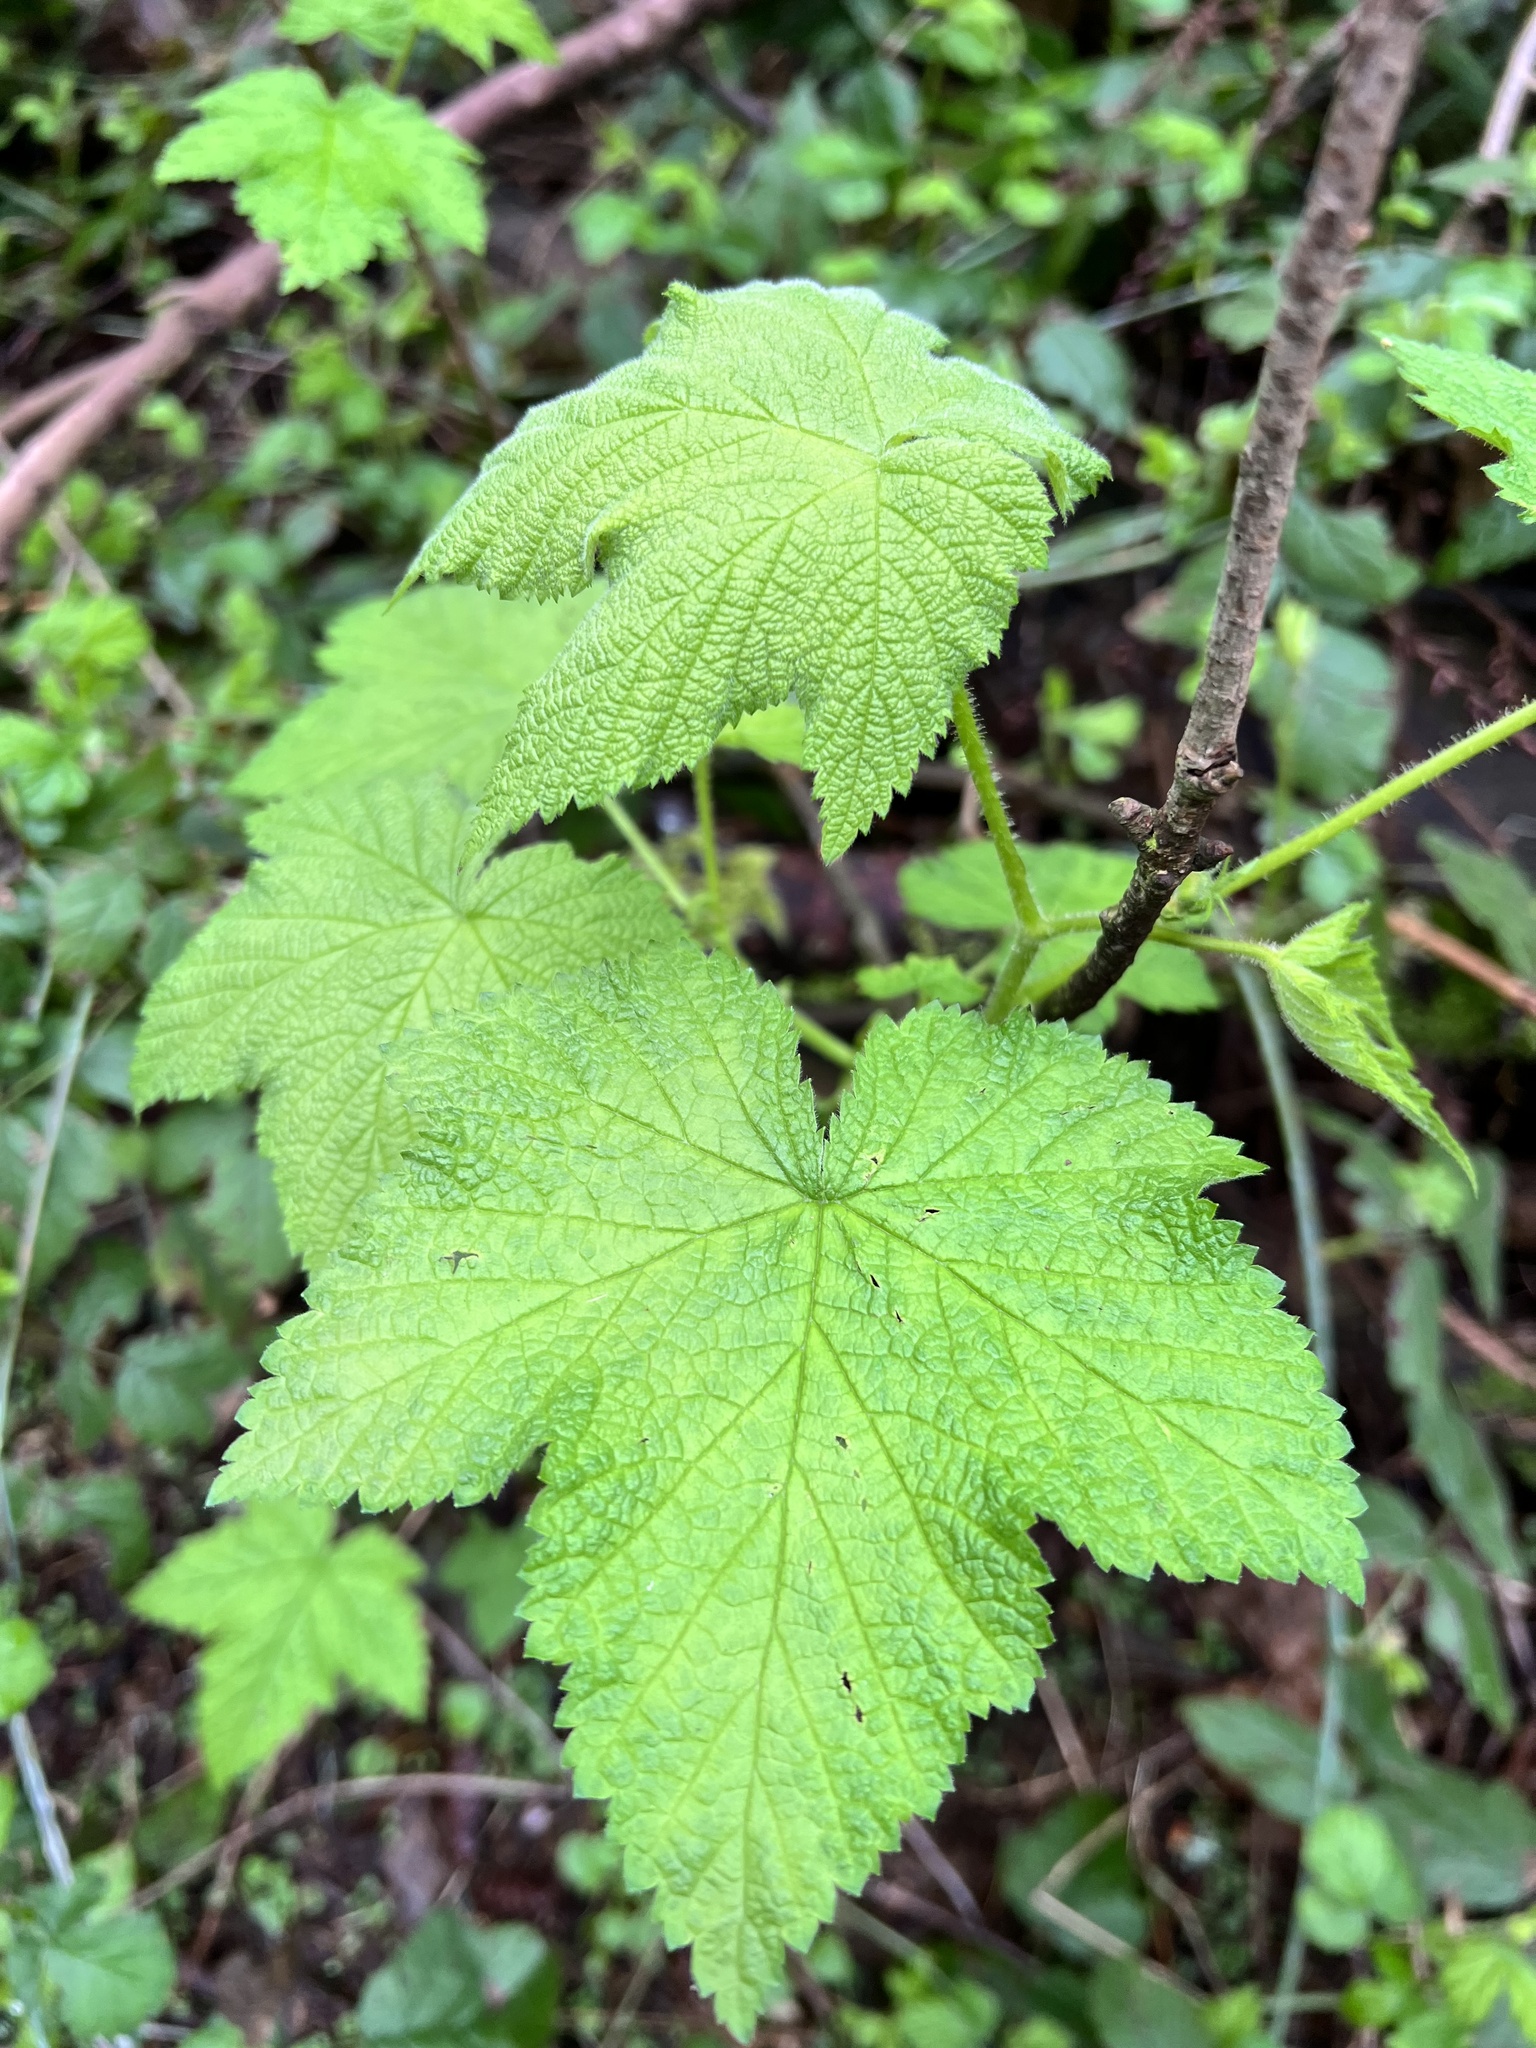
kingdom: Plantae
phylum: Tracheophyta
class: Magnoliopsida
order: Rosales
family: Rosaceae
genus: Rubus
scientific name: Rubus parviflorus
